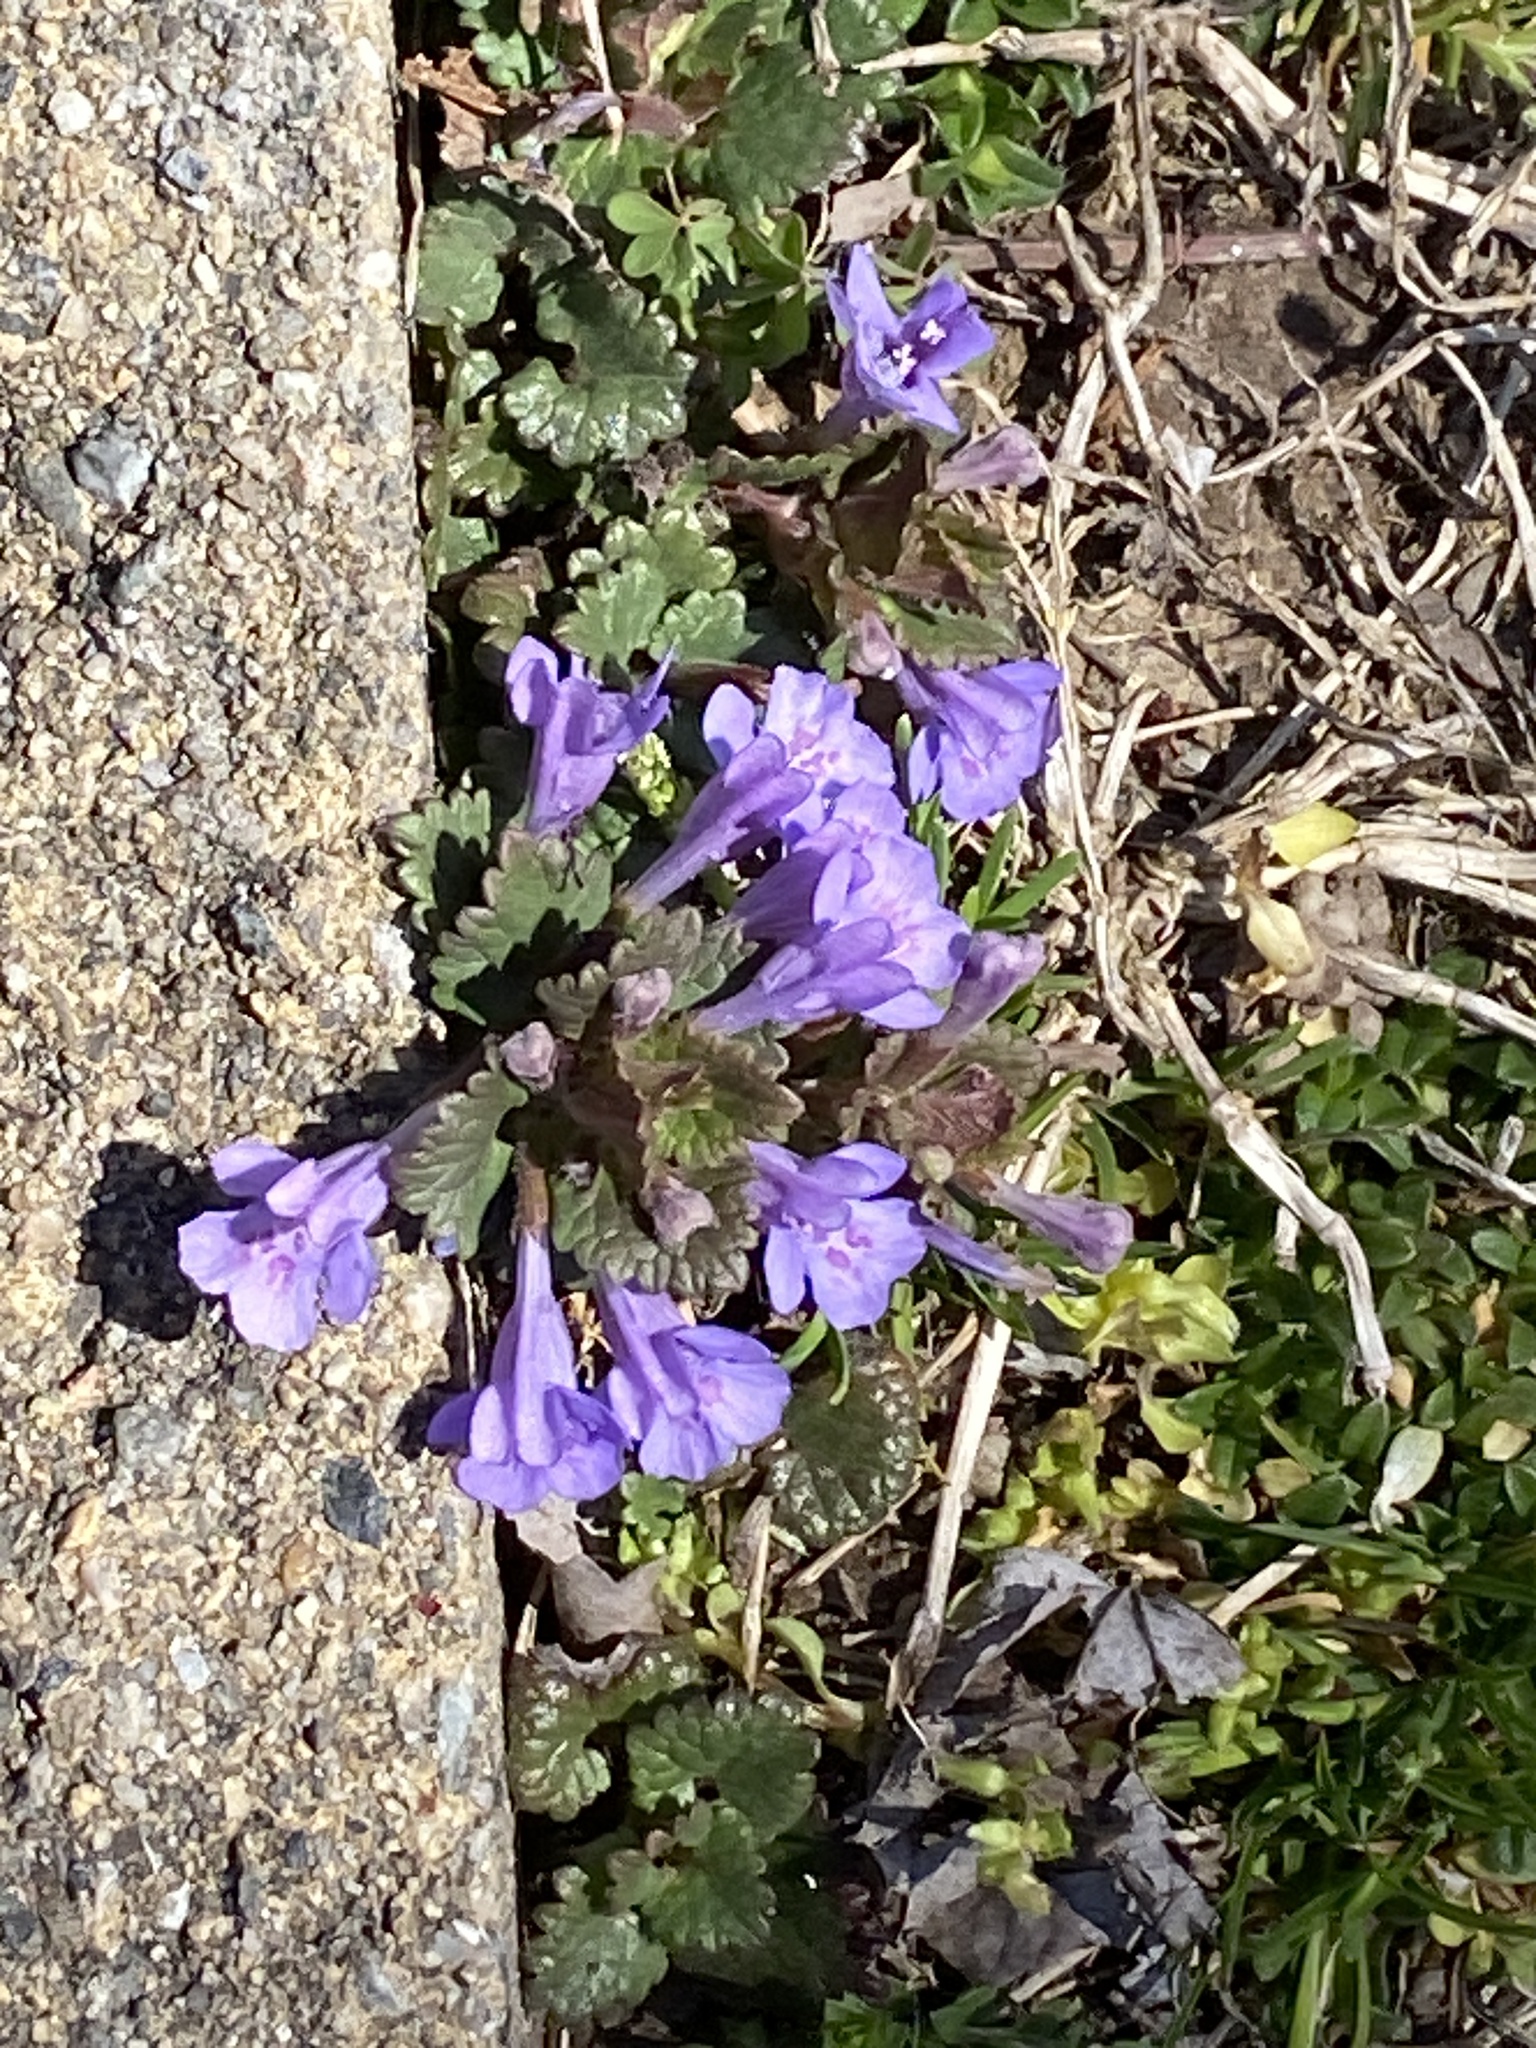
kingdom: Plantae
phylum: Tracheophyta
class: Magnoliopsida
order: Lamiales
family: Lamiaceae
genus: Glechoma
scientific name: Glechoma hederacea
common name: Ground ivy
